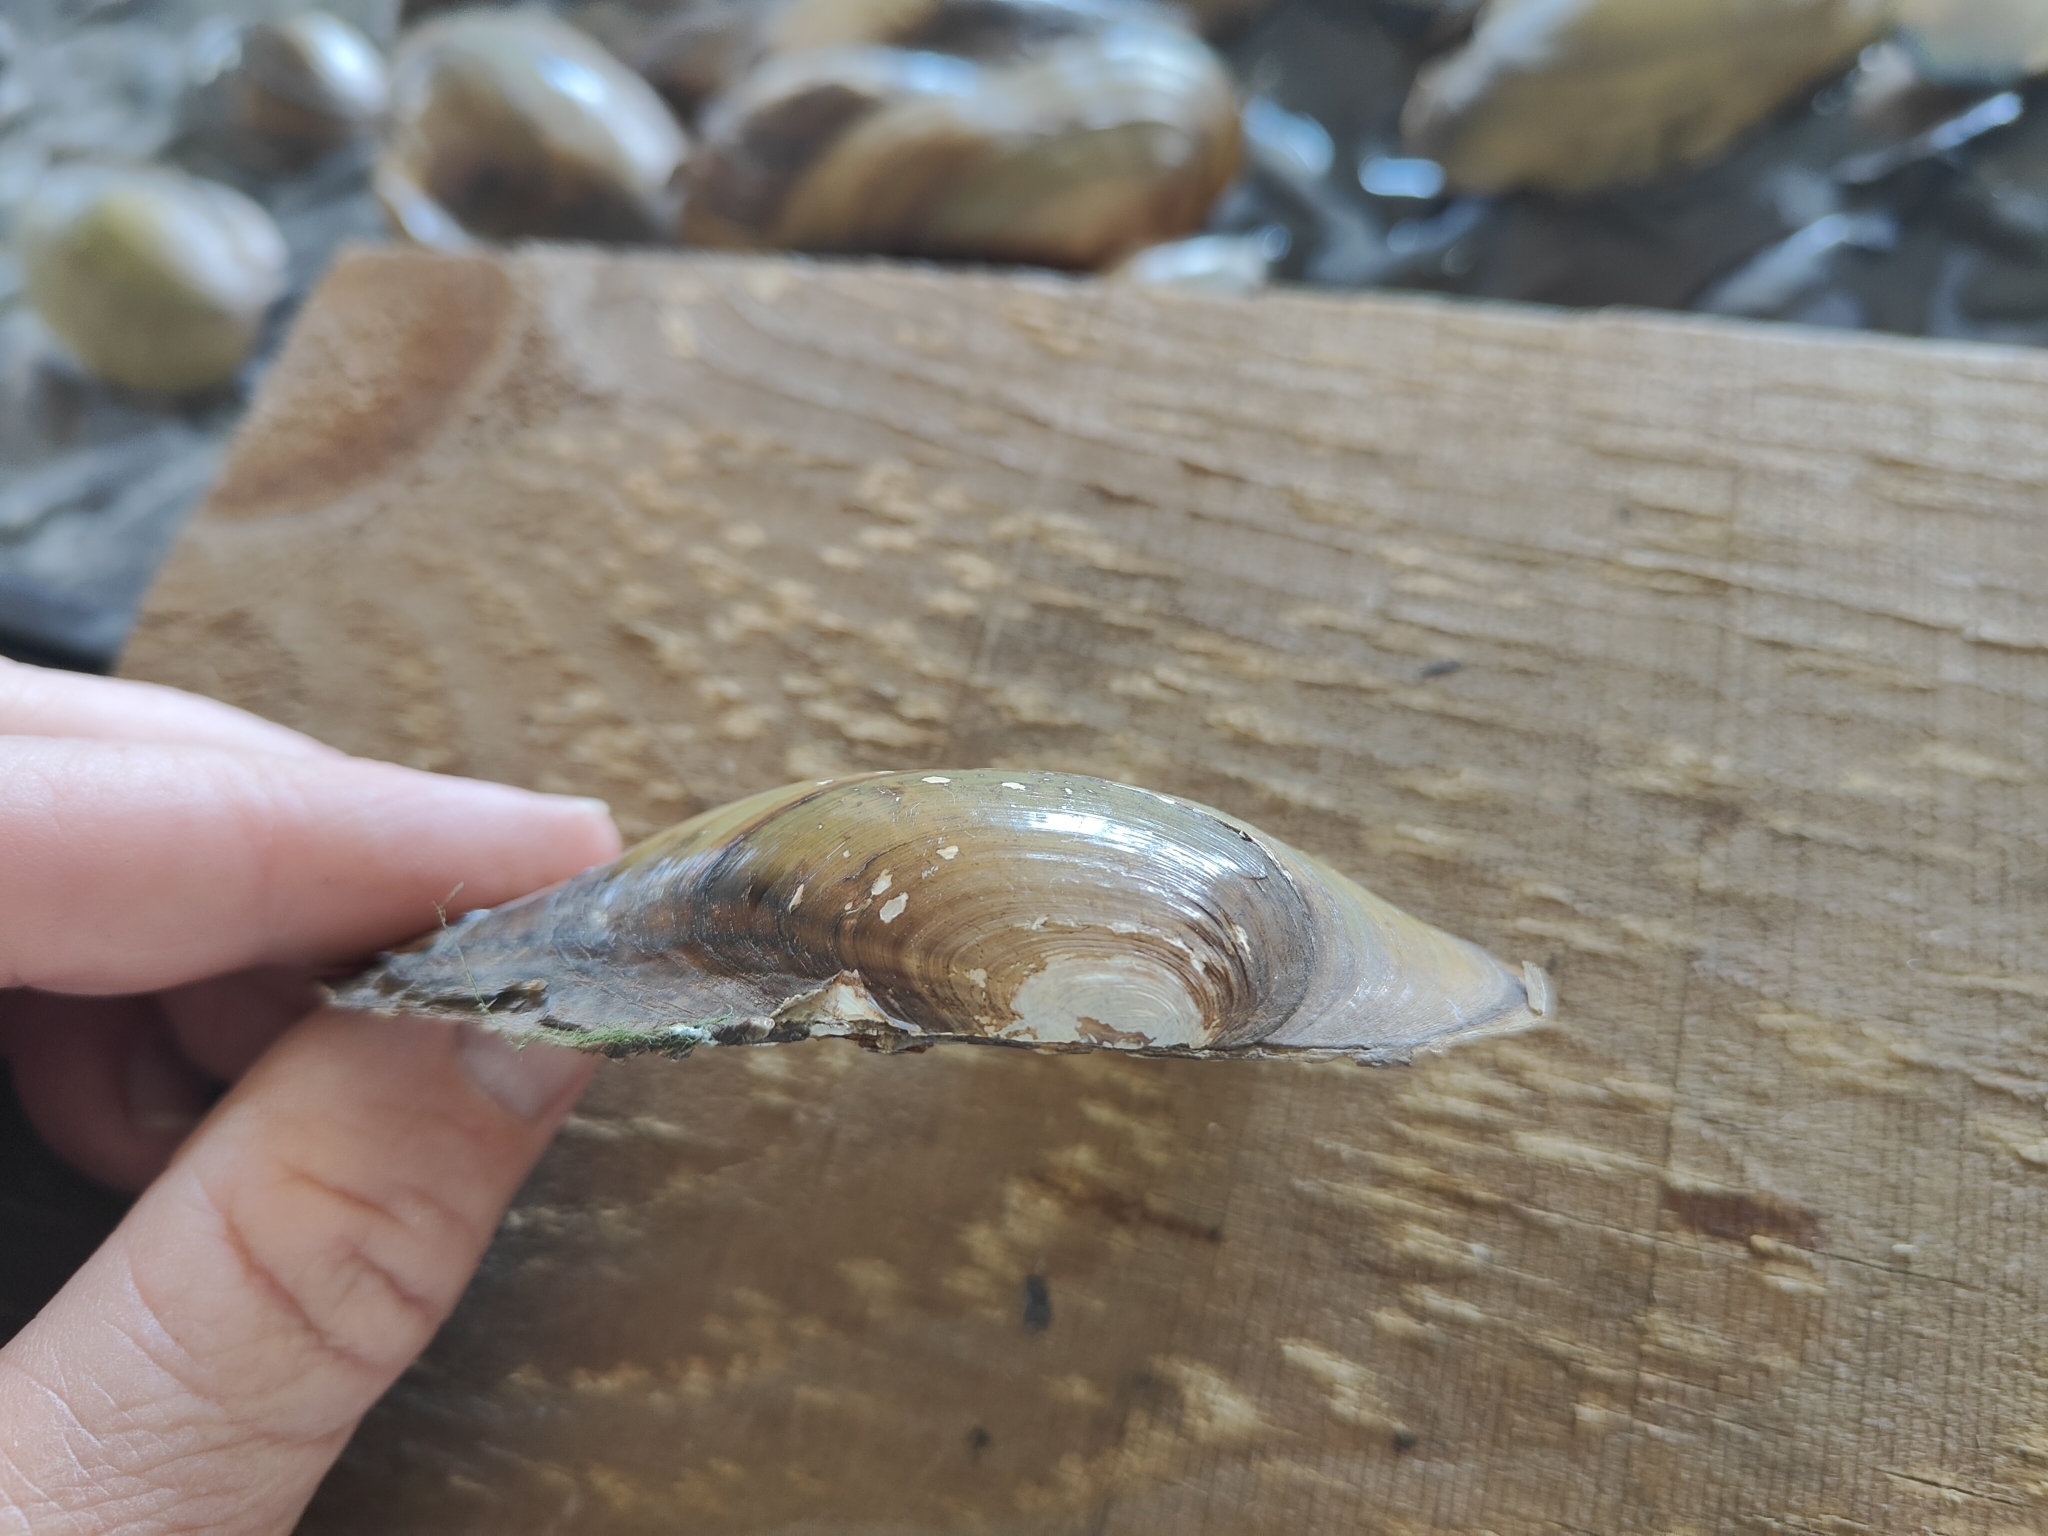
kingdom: Animalia
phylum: Mollusca
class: Bivalvia
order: Unionida
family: Unionidae
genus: Utterbackia
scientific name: Utterbackia imbecillis
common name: Paper pondshell
